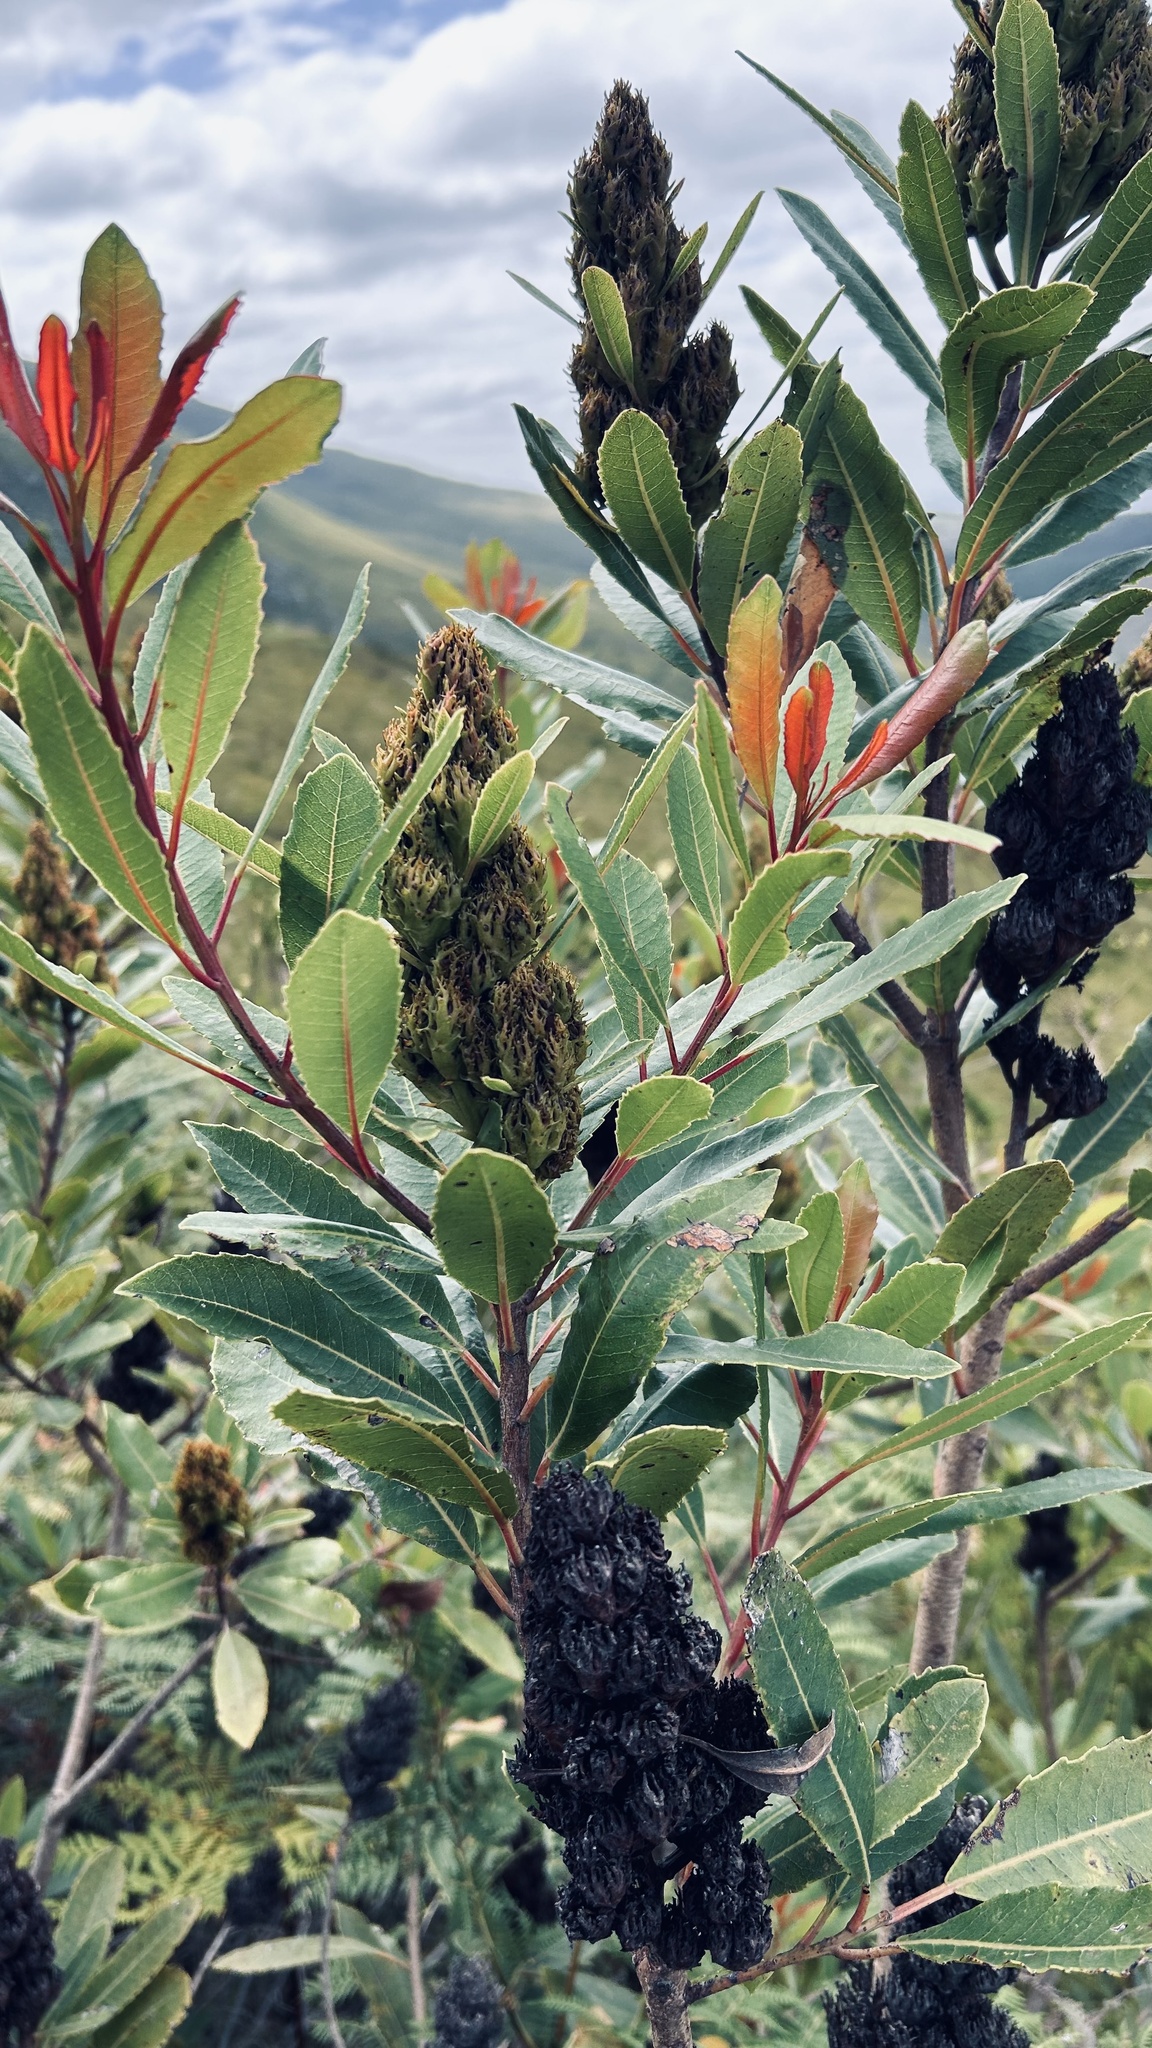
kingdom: Plantae
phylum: Tracheophyta
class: Magnoliopsida
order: Sapindales
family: Anacardiaceae
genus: Laurophyllus
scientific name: Laurophyllus capensis
